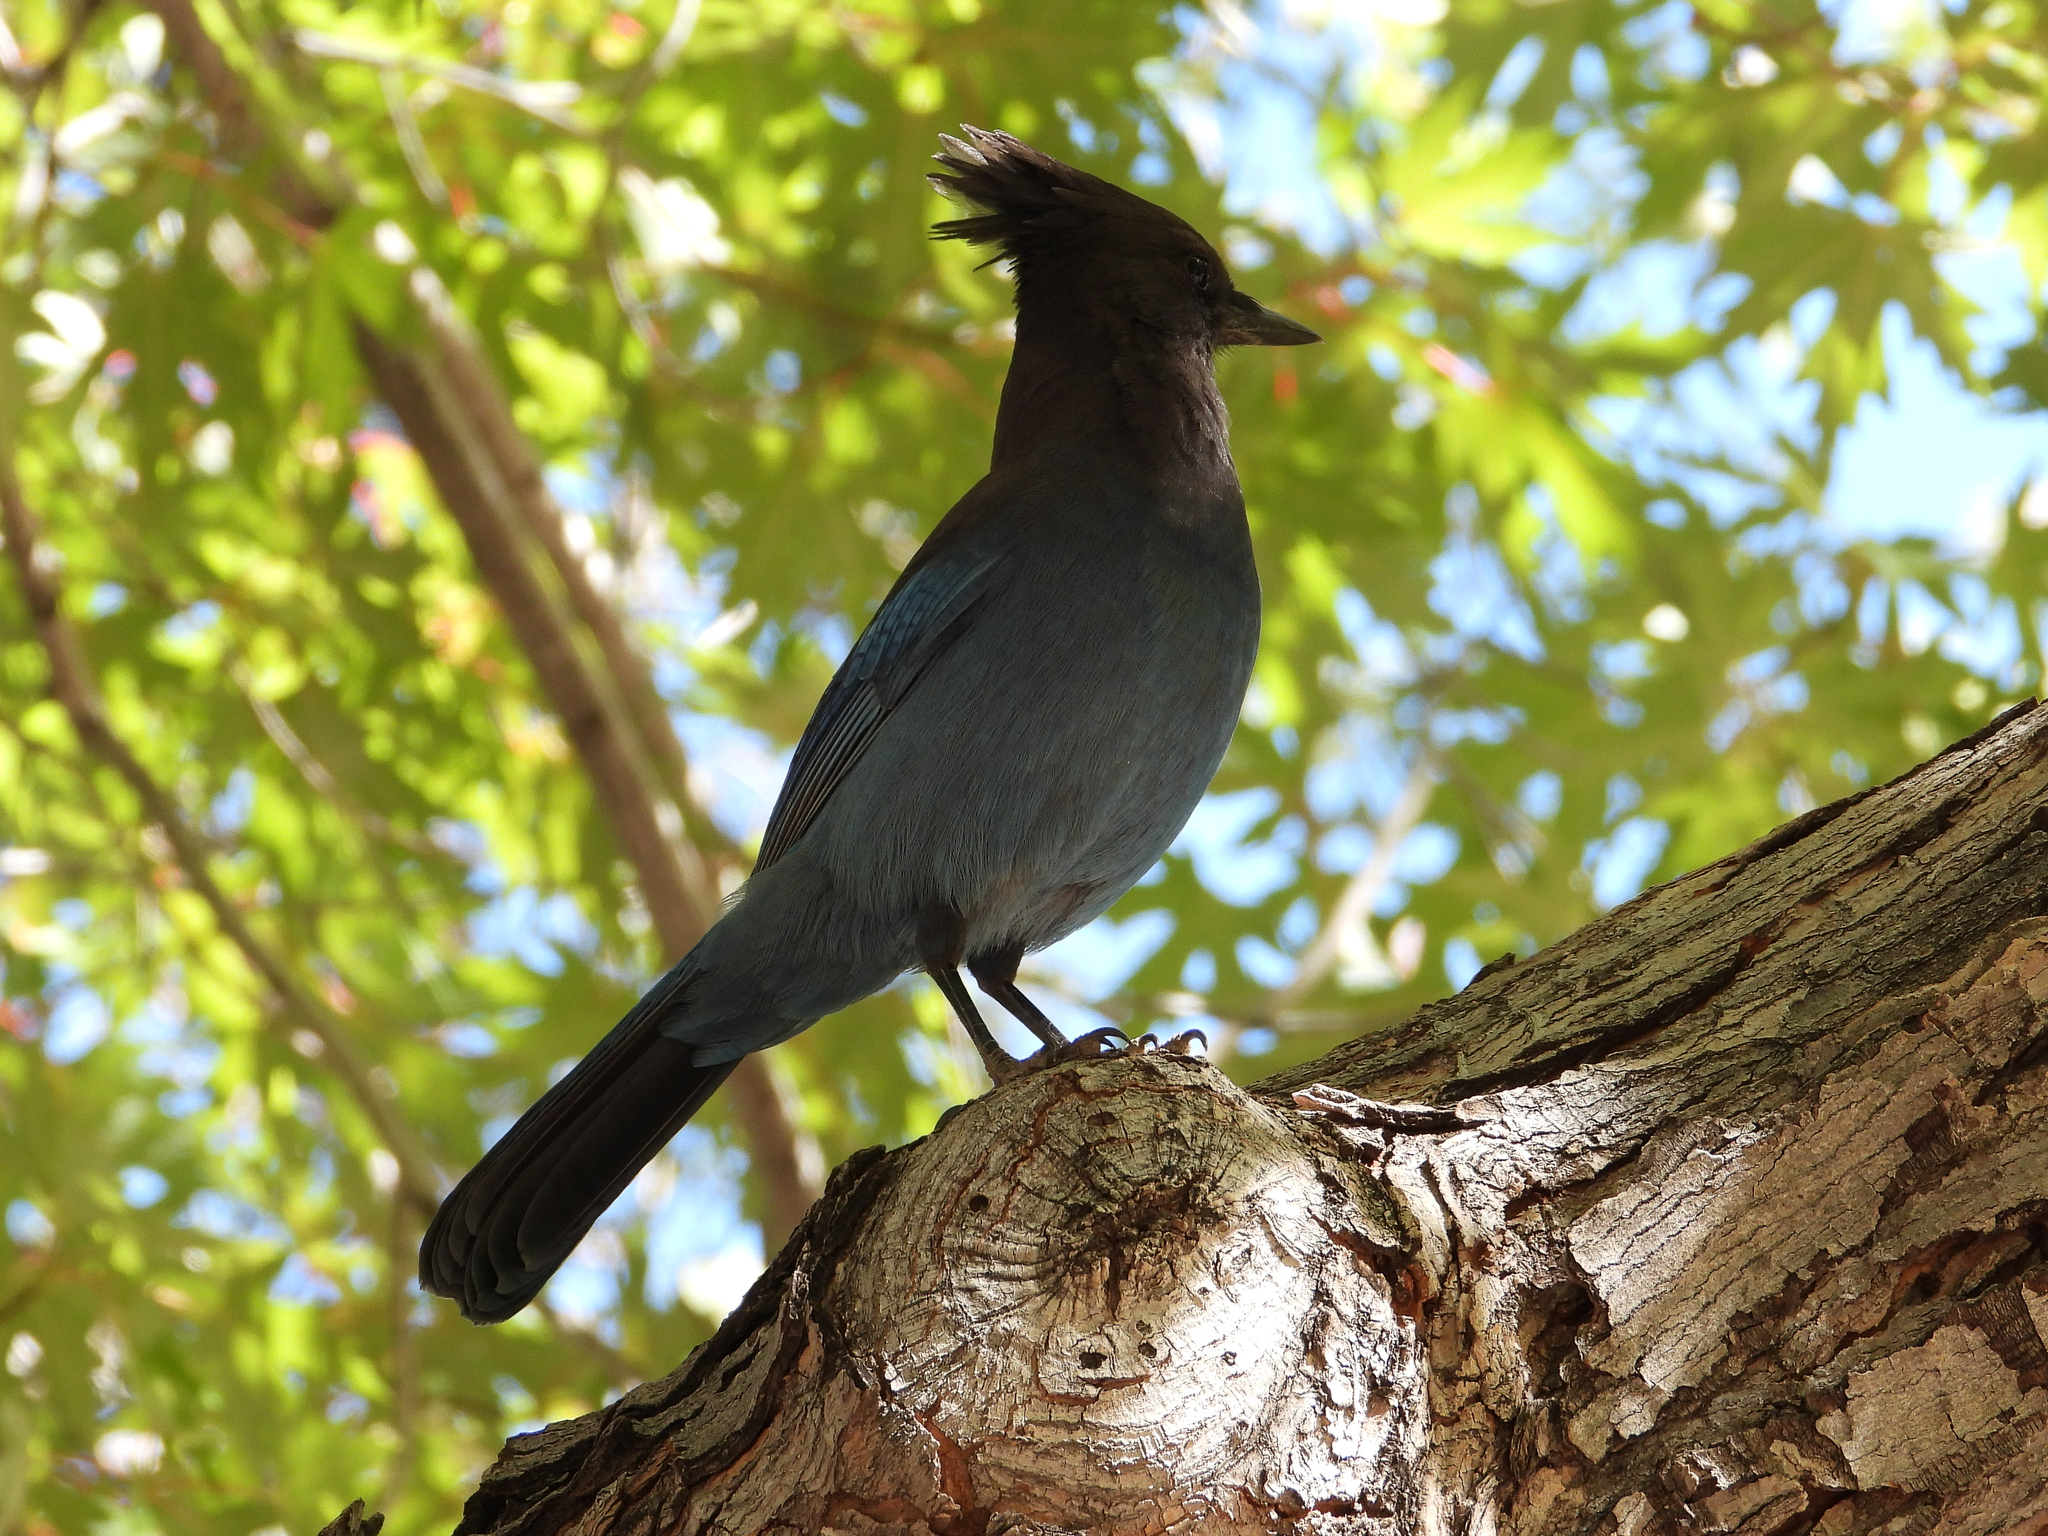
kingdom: Animalia
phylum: Chordata
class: Aves
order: Passeriformes
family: Corvidae
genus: Cyanocitta
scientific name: Cyanocitta stelleri
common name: Steller's jay
